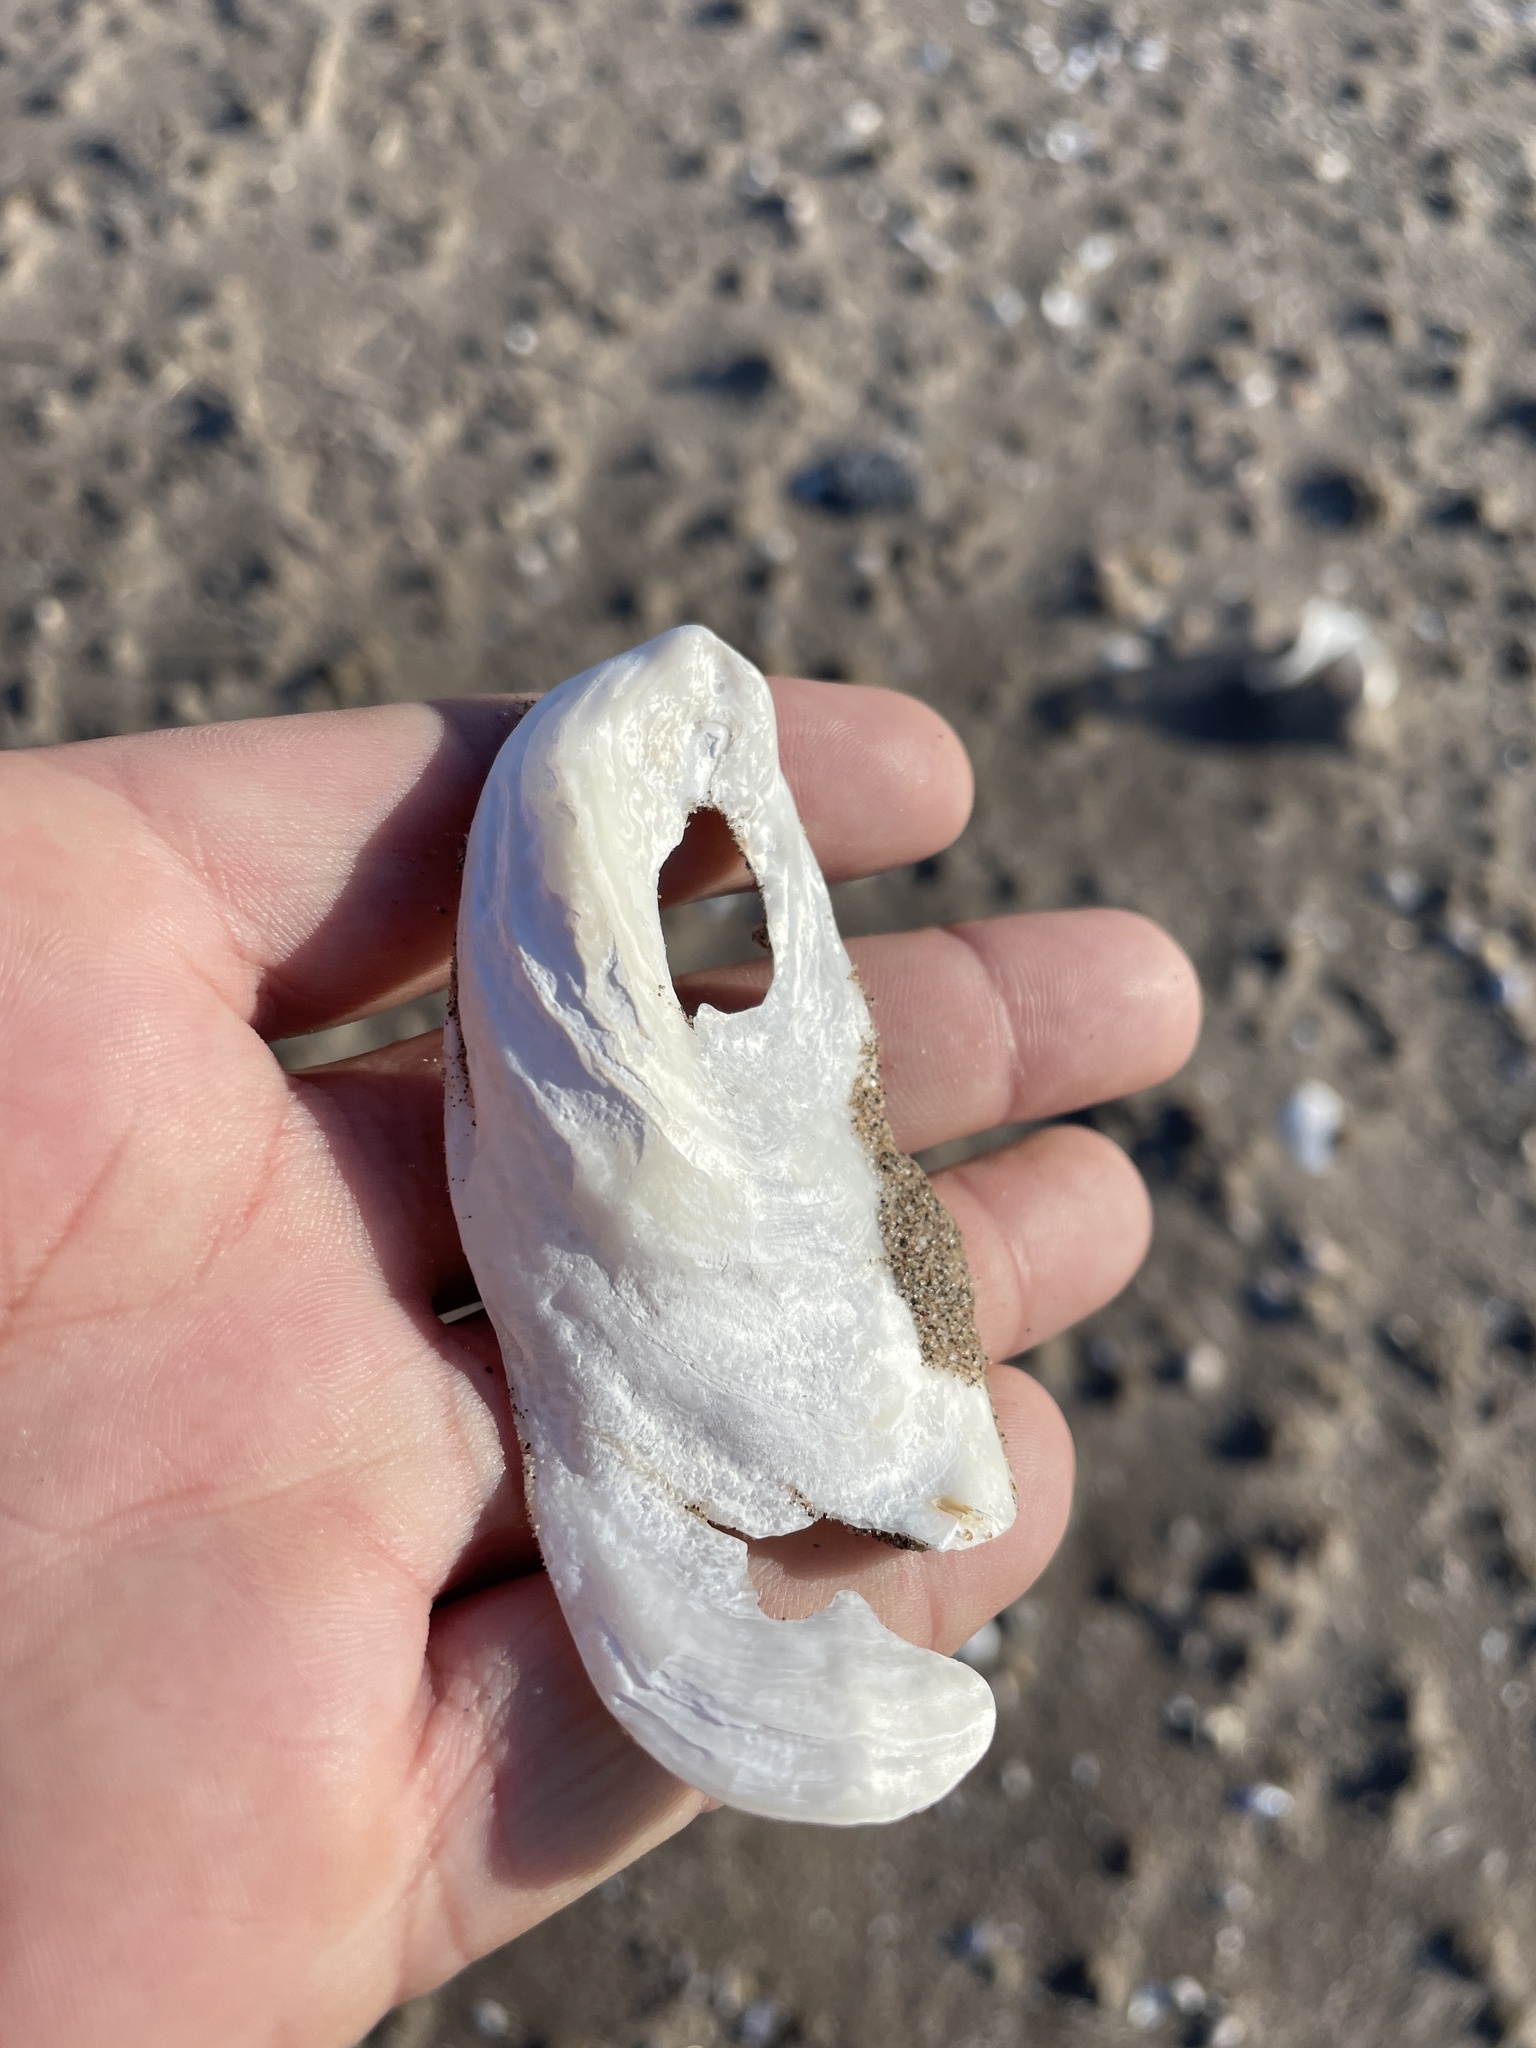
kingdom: Animalia
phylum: Mollusca
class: Bivalvia
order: Ostreida
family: Ostreidae
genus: Crassostrea
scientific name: Crassostrea virginica
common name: American oyster
